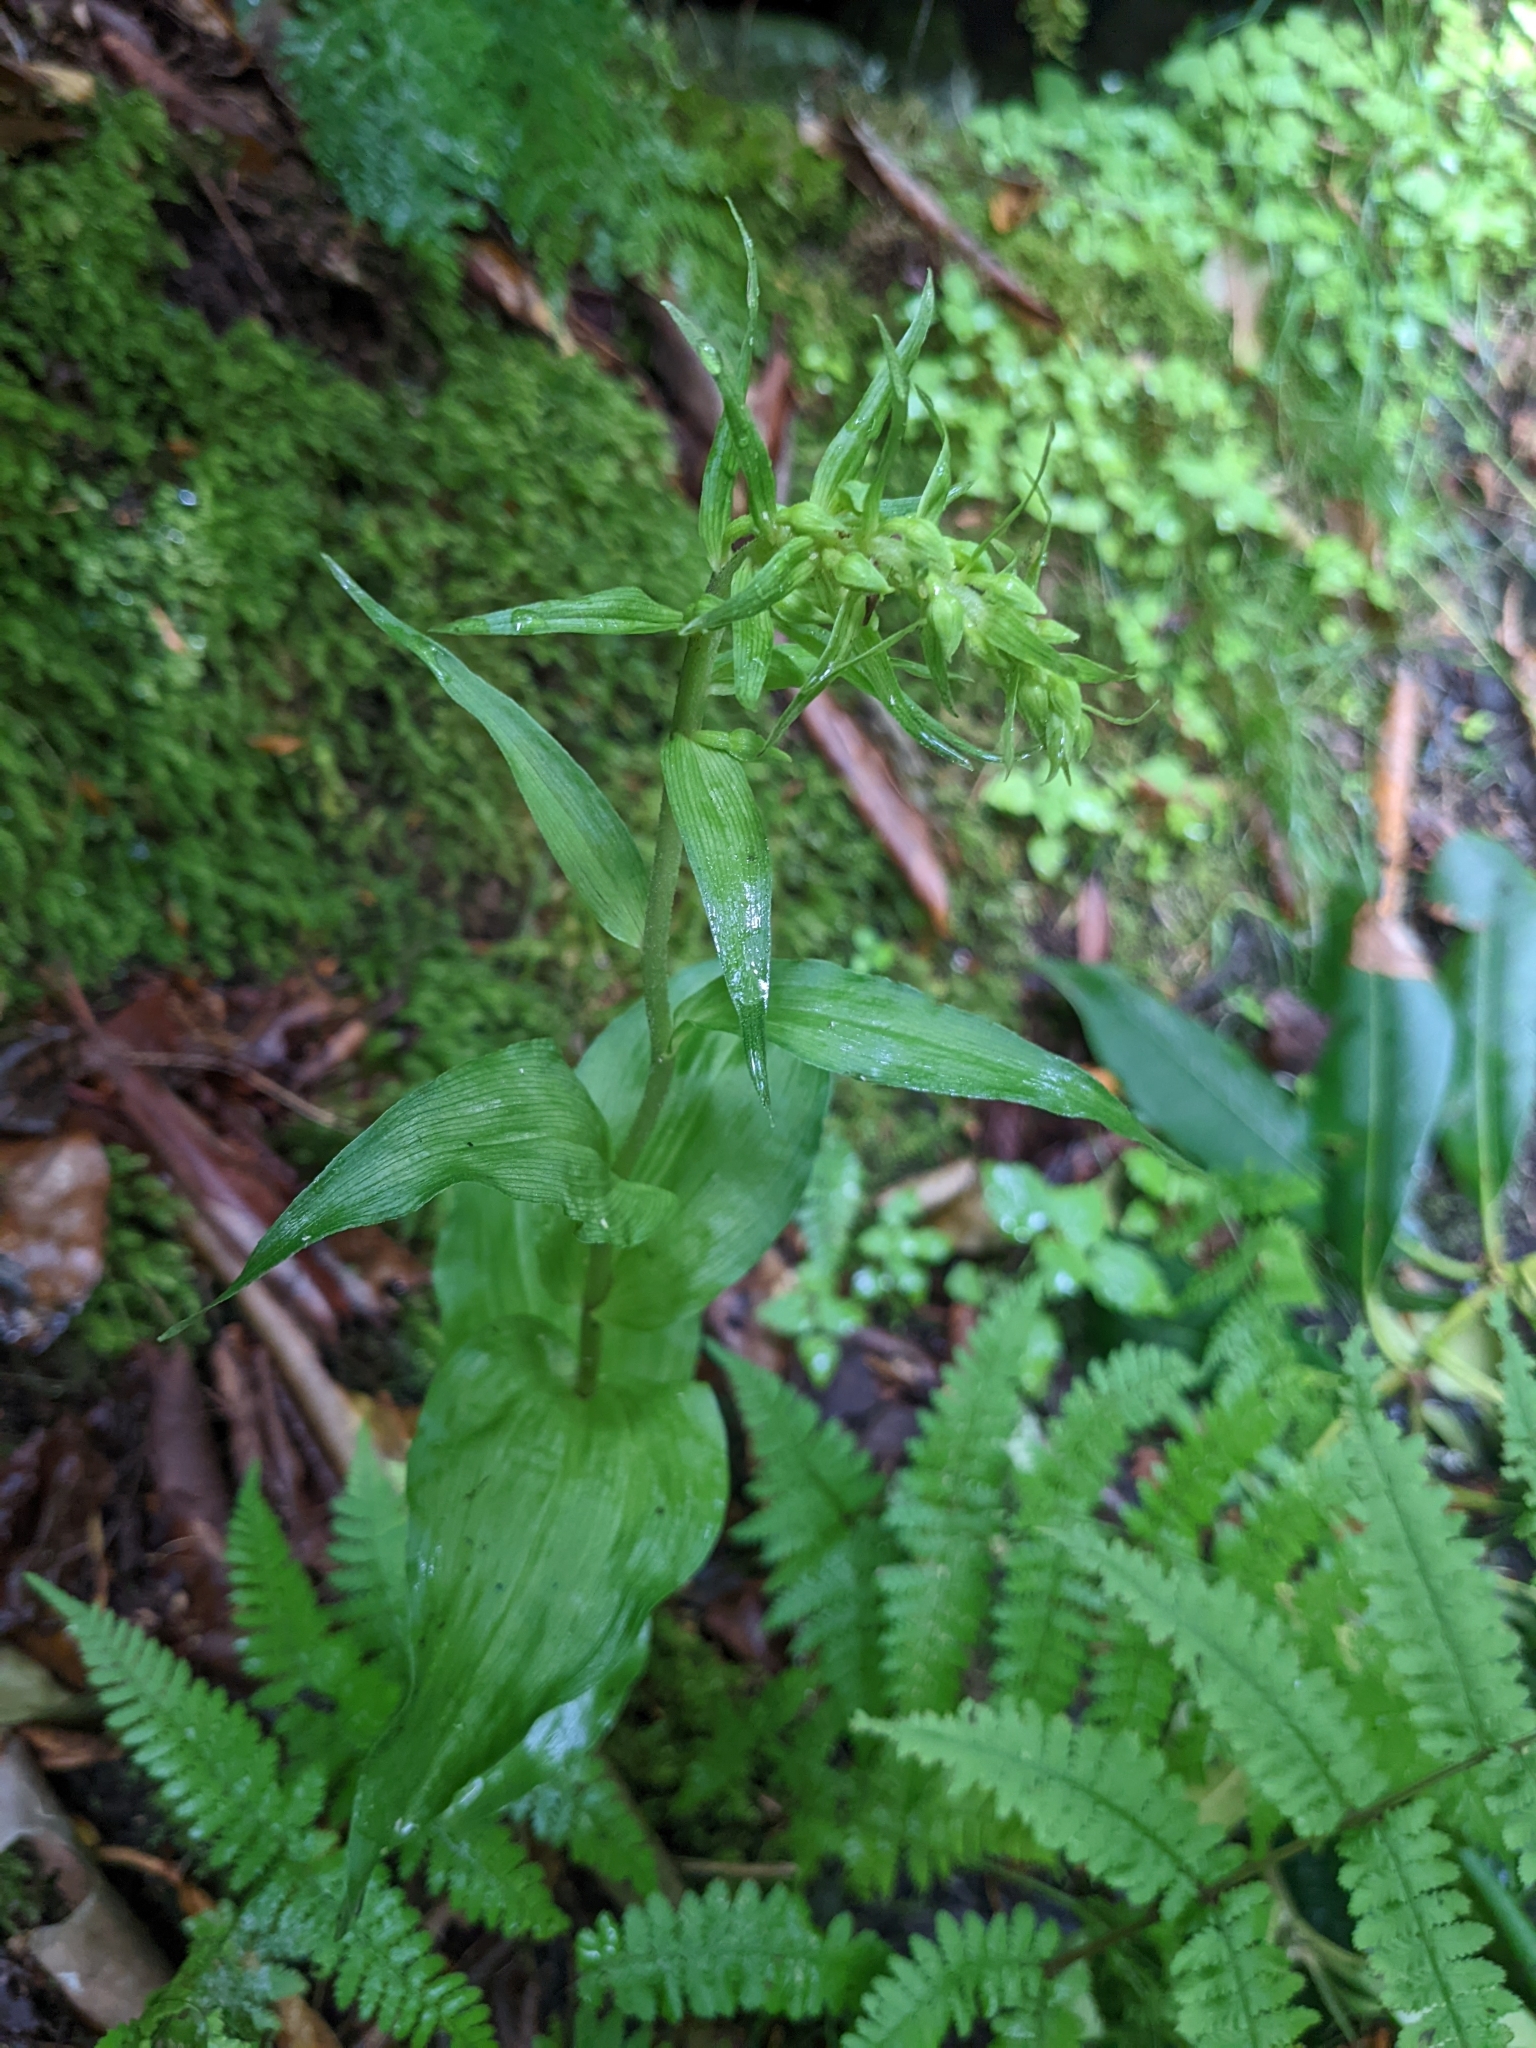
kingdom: Plantae
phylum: Tracheophyta
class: Liliopsida
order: Asparagales
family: Orchidaceae
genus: Epipactis
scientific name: Epipactis helleborine
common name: Broad-leaved helleborine
